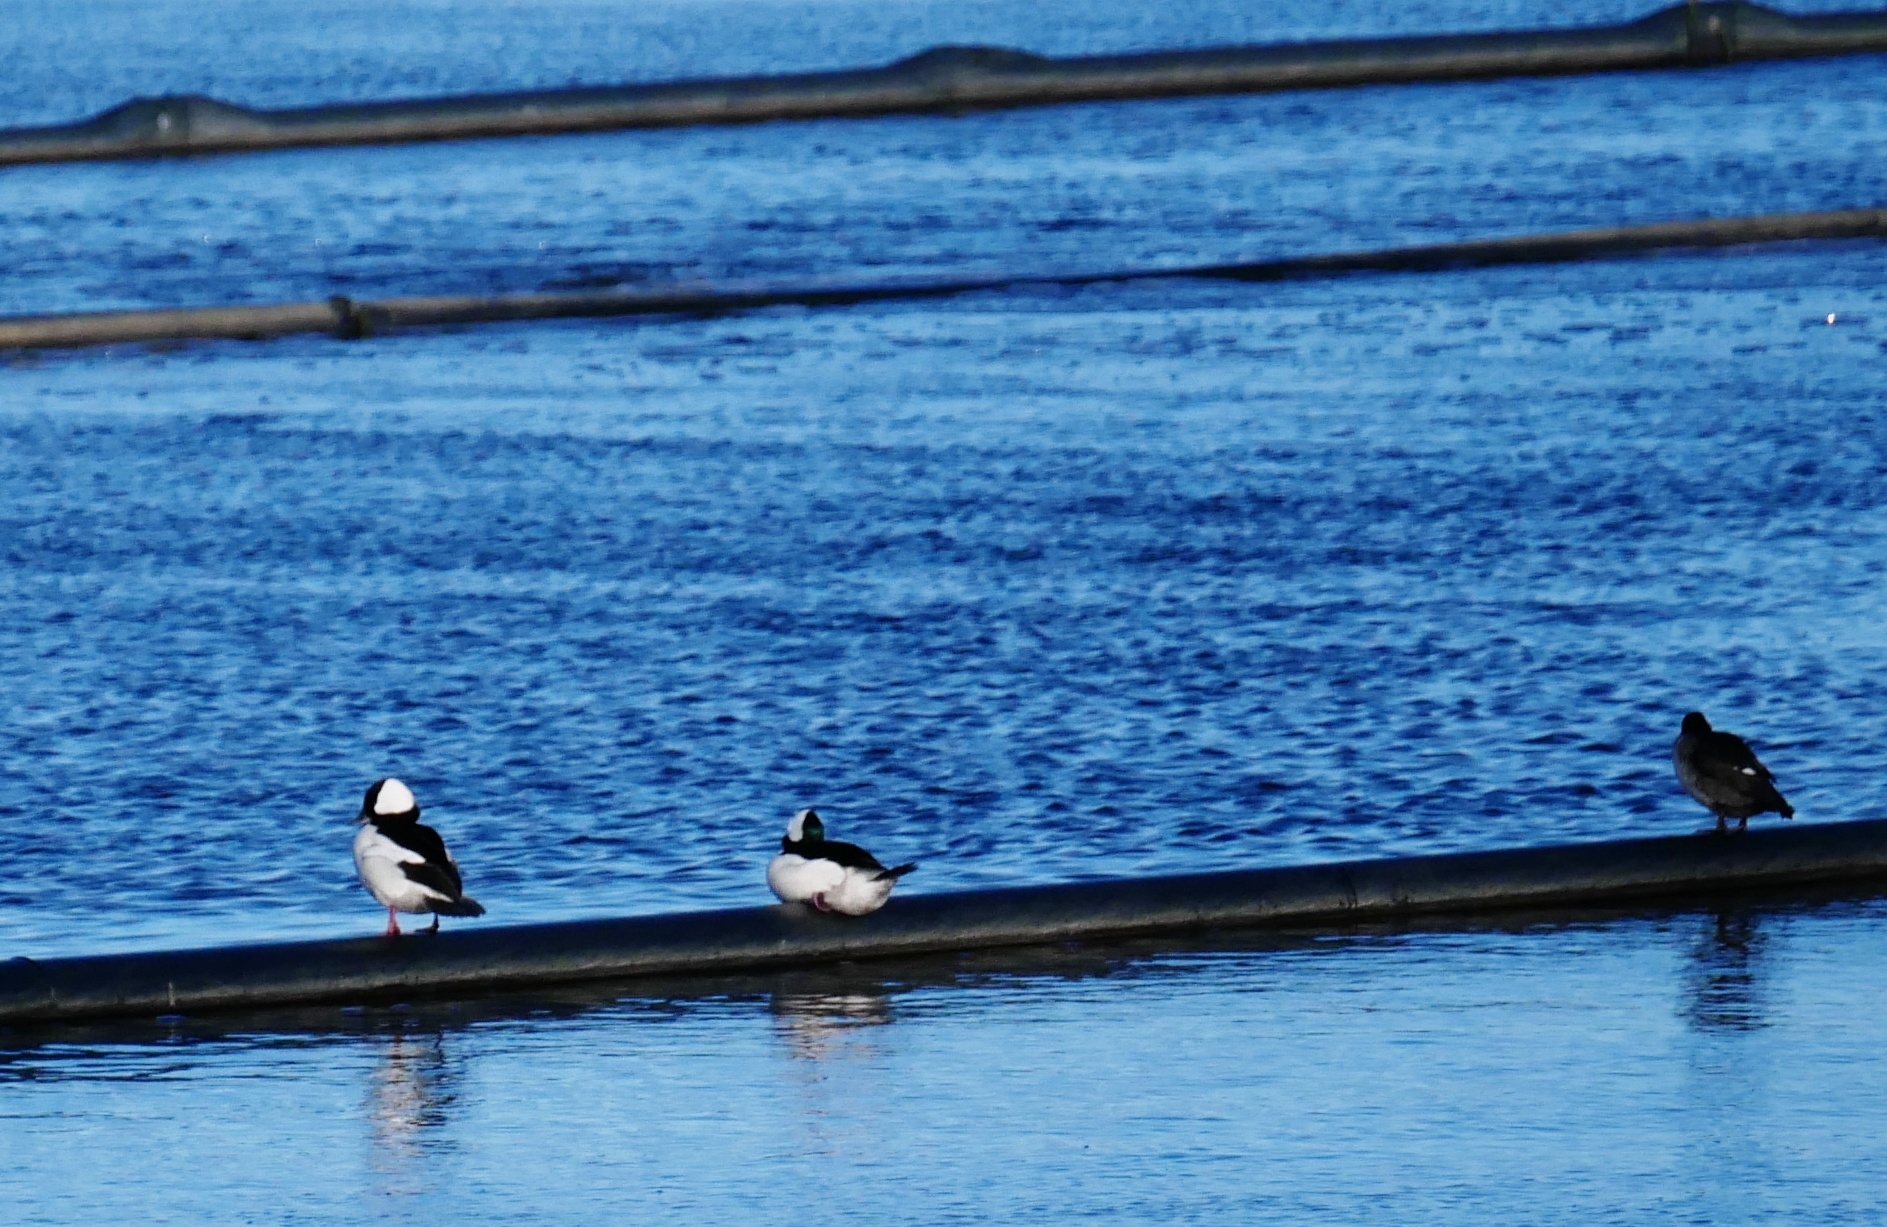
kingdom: Animalia
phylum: Chordata
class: Aves
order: Anseriformes
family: Anatidae
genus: Bucephala
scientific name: Bucephala albeola
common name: Bufflehead
